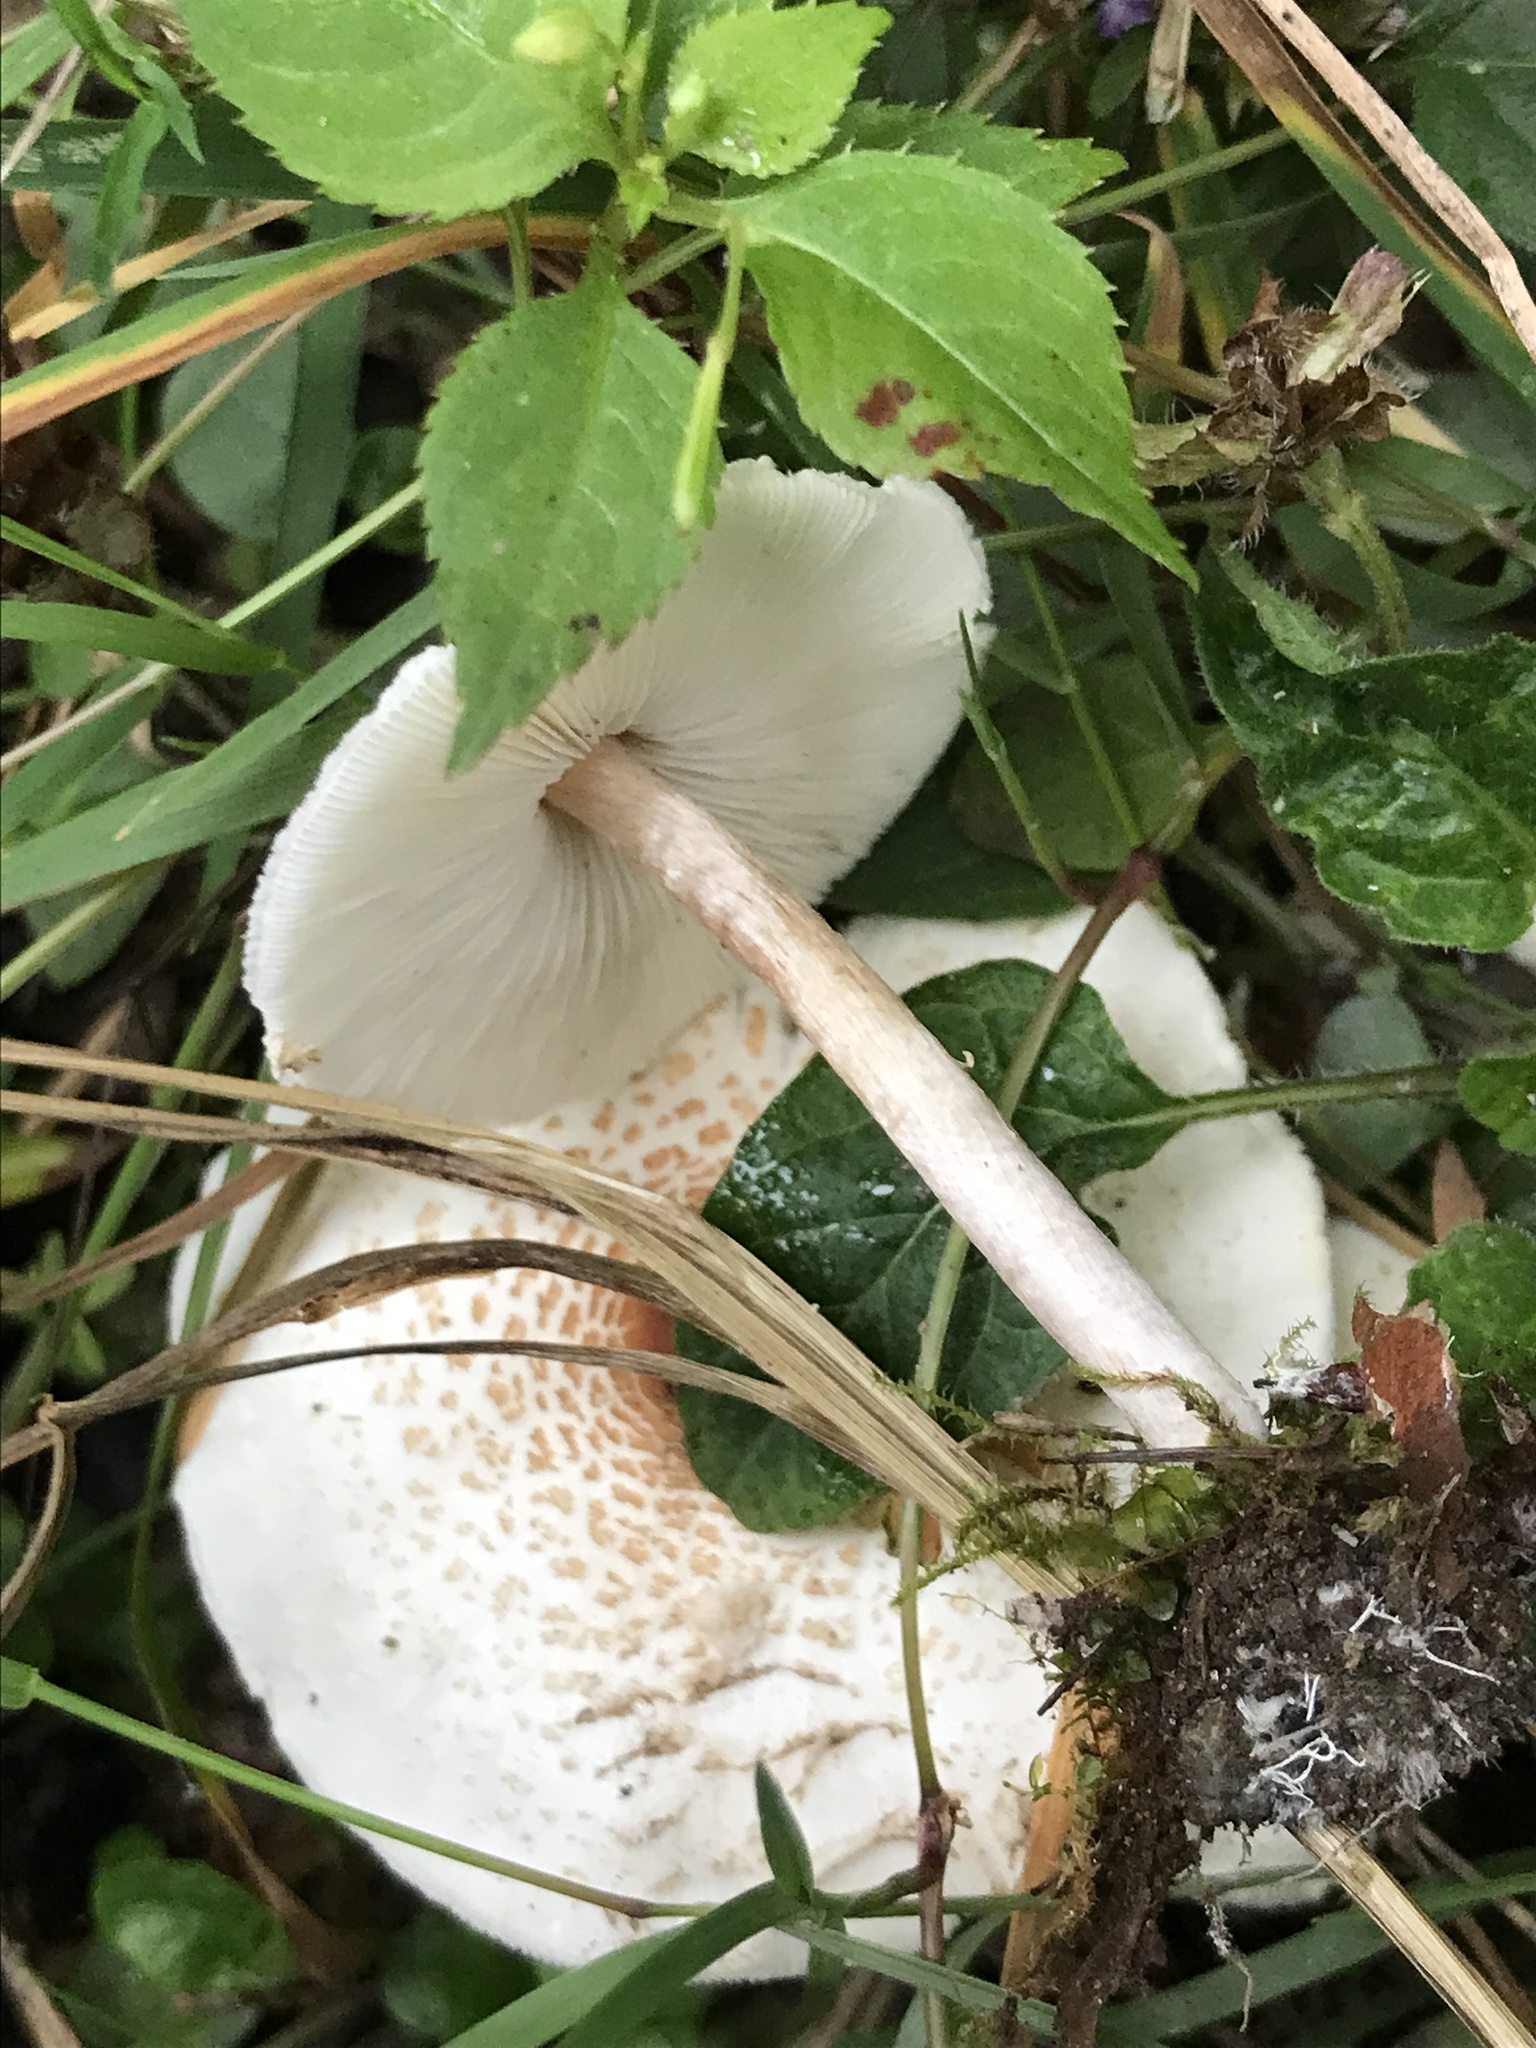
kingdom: Fungi
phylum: Basidiomycota
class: Agaricomycetes
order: Agaricales
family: Agaricaceae
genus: Lepiota
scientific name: Lepiota cristata
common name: Stinking dapperling
